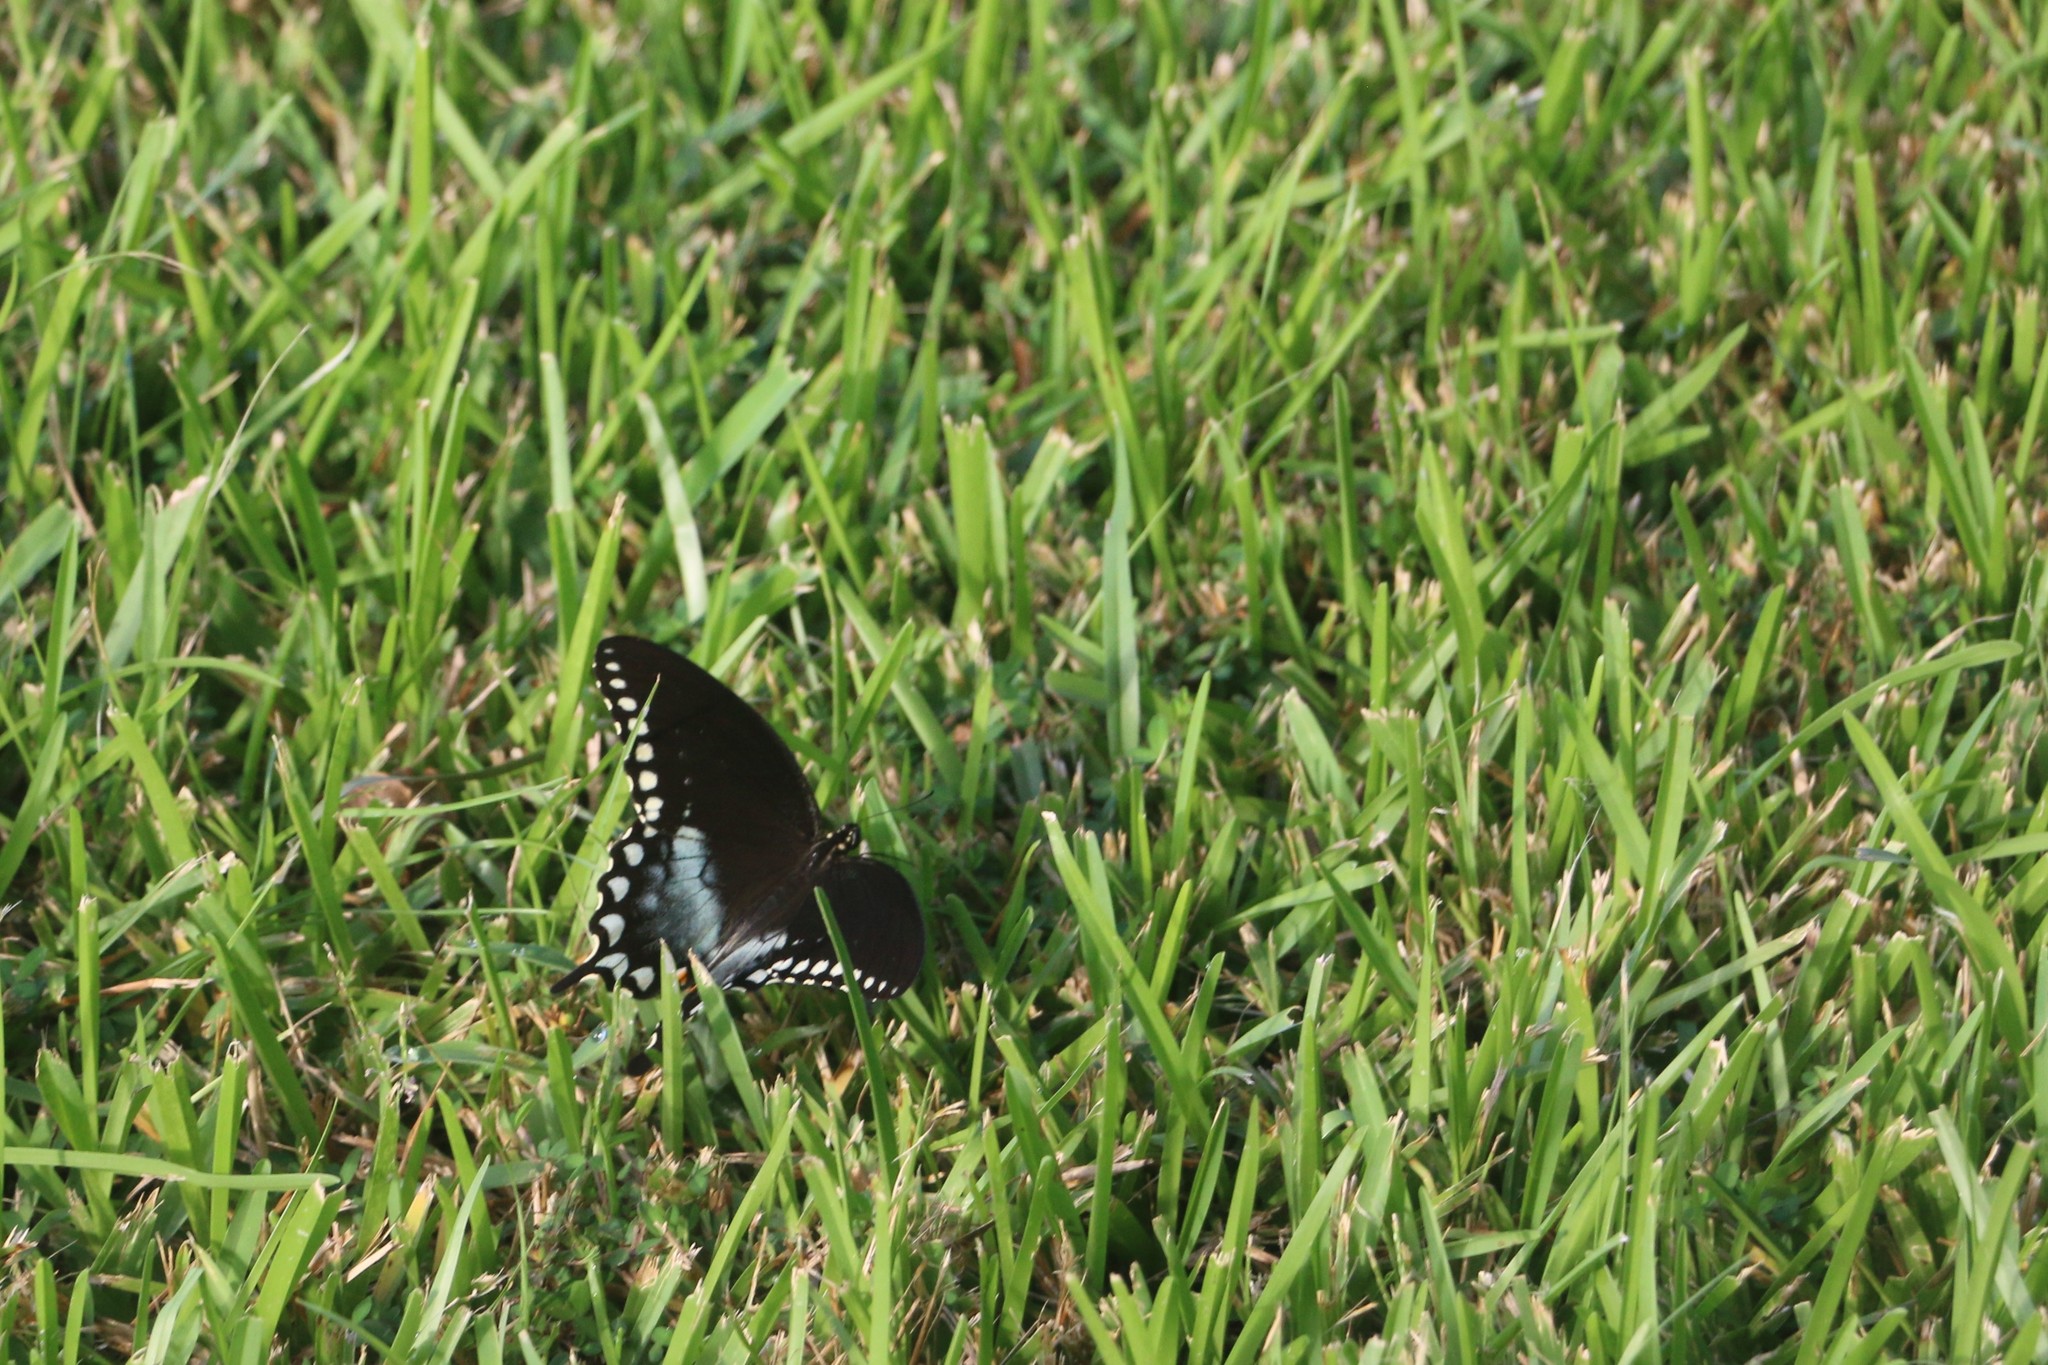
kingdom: Animalia
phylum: Arthropoda
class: Insecta
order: Lepidoptera
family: Papilionidae
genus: Papilio
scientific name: Papilio troilus
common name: Spicebush swallowtail
